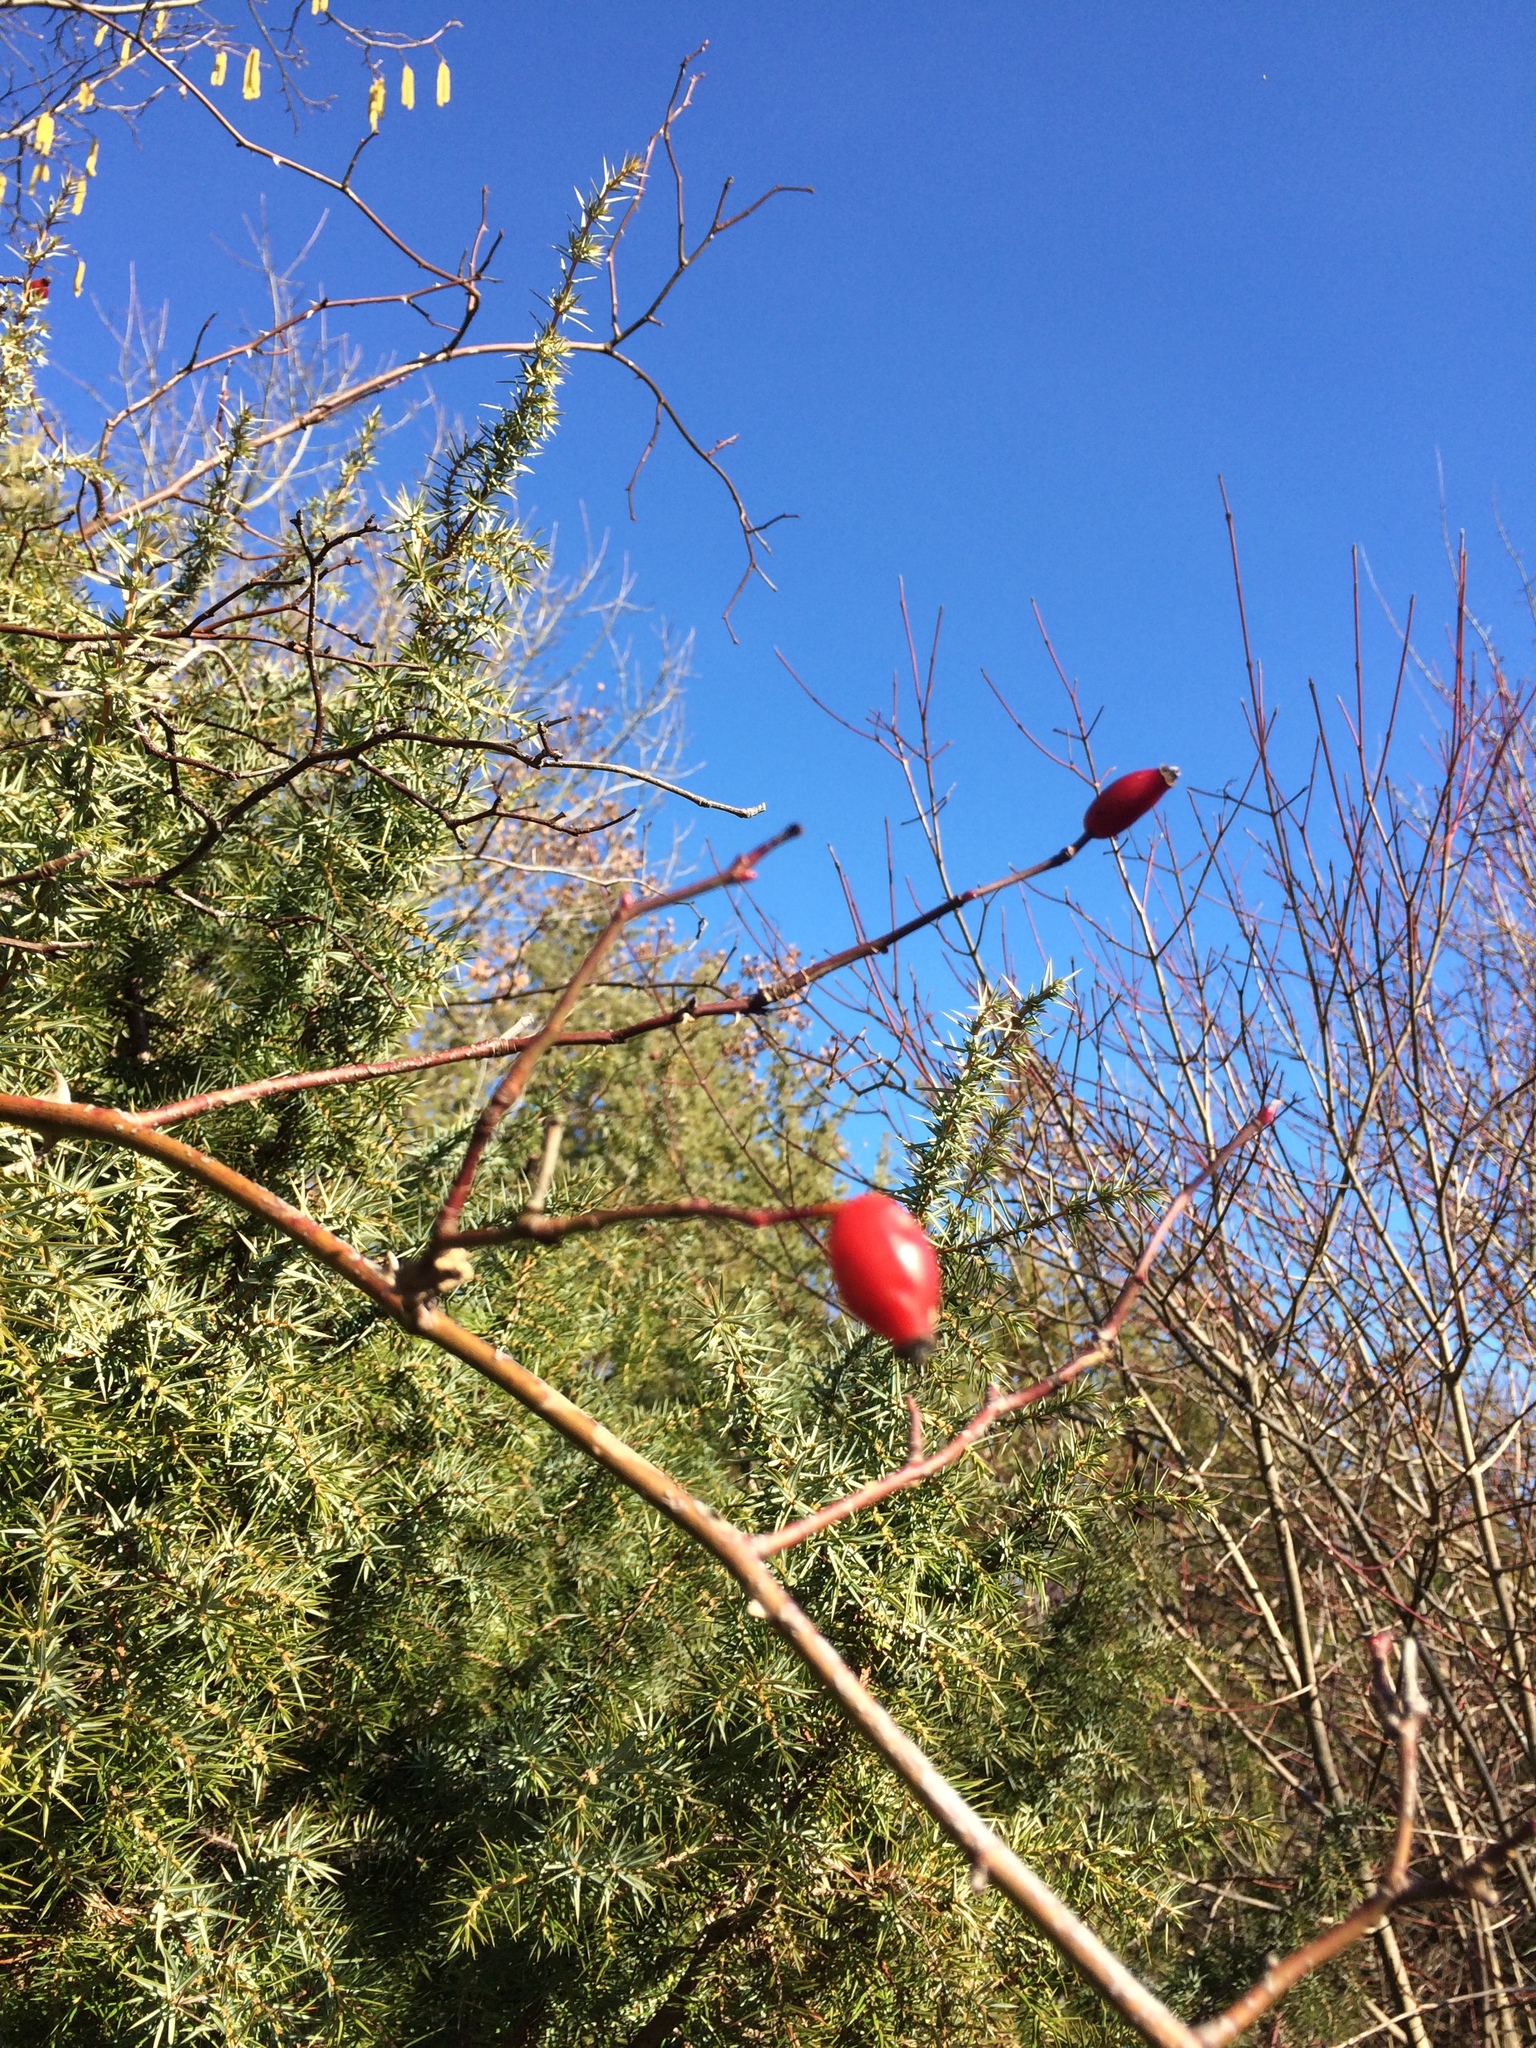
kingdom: Plantae
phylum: Tracheophyta
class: Magnoliopsida
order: Rosales
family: Rosaceae
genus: Rosa
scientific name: Rosa canina
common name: Dog rose
